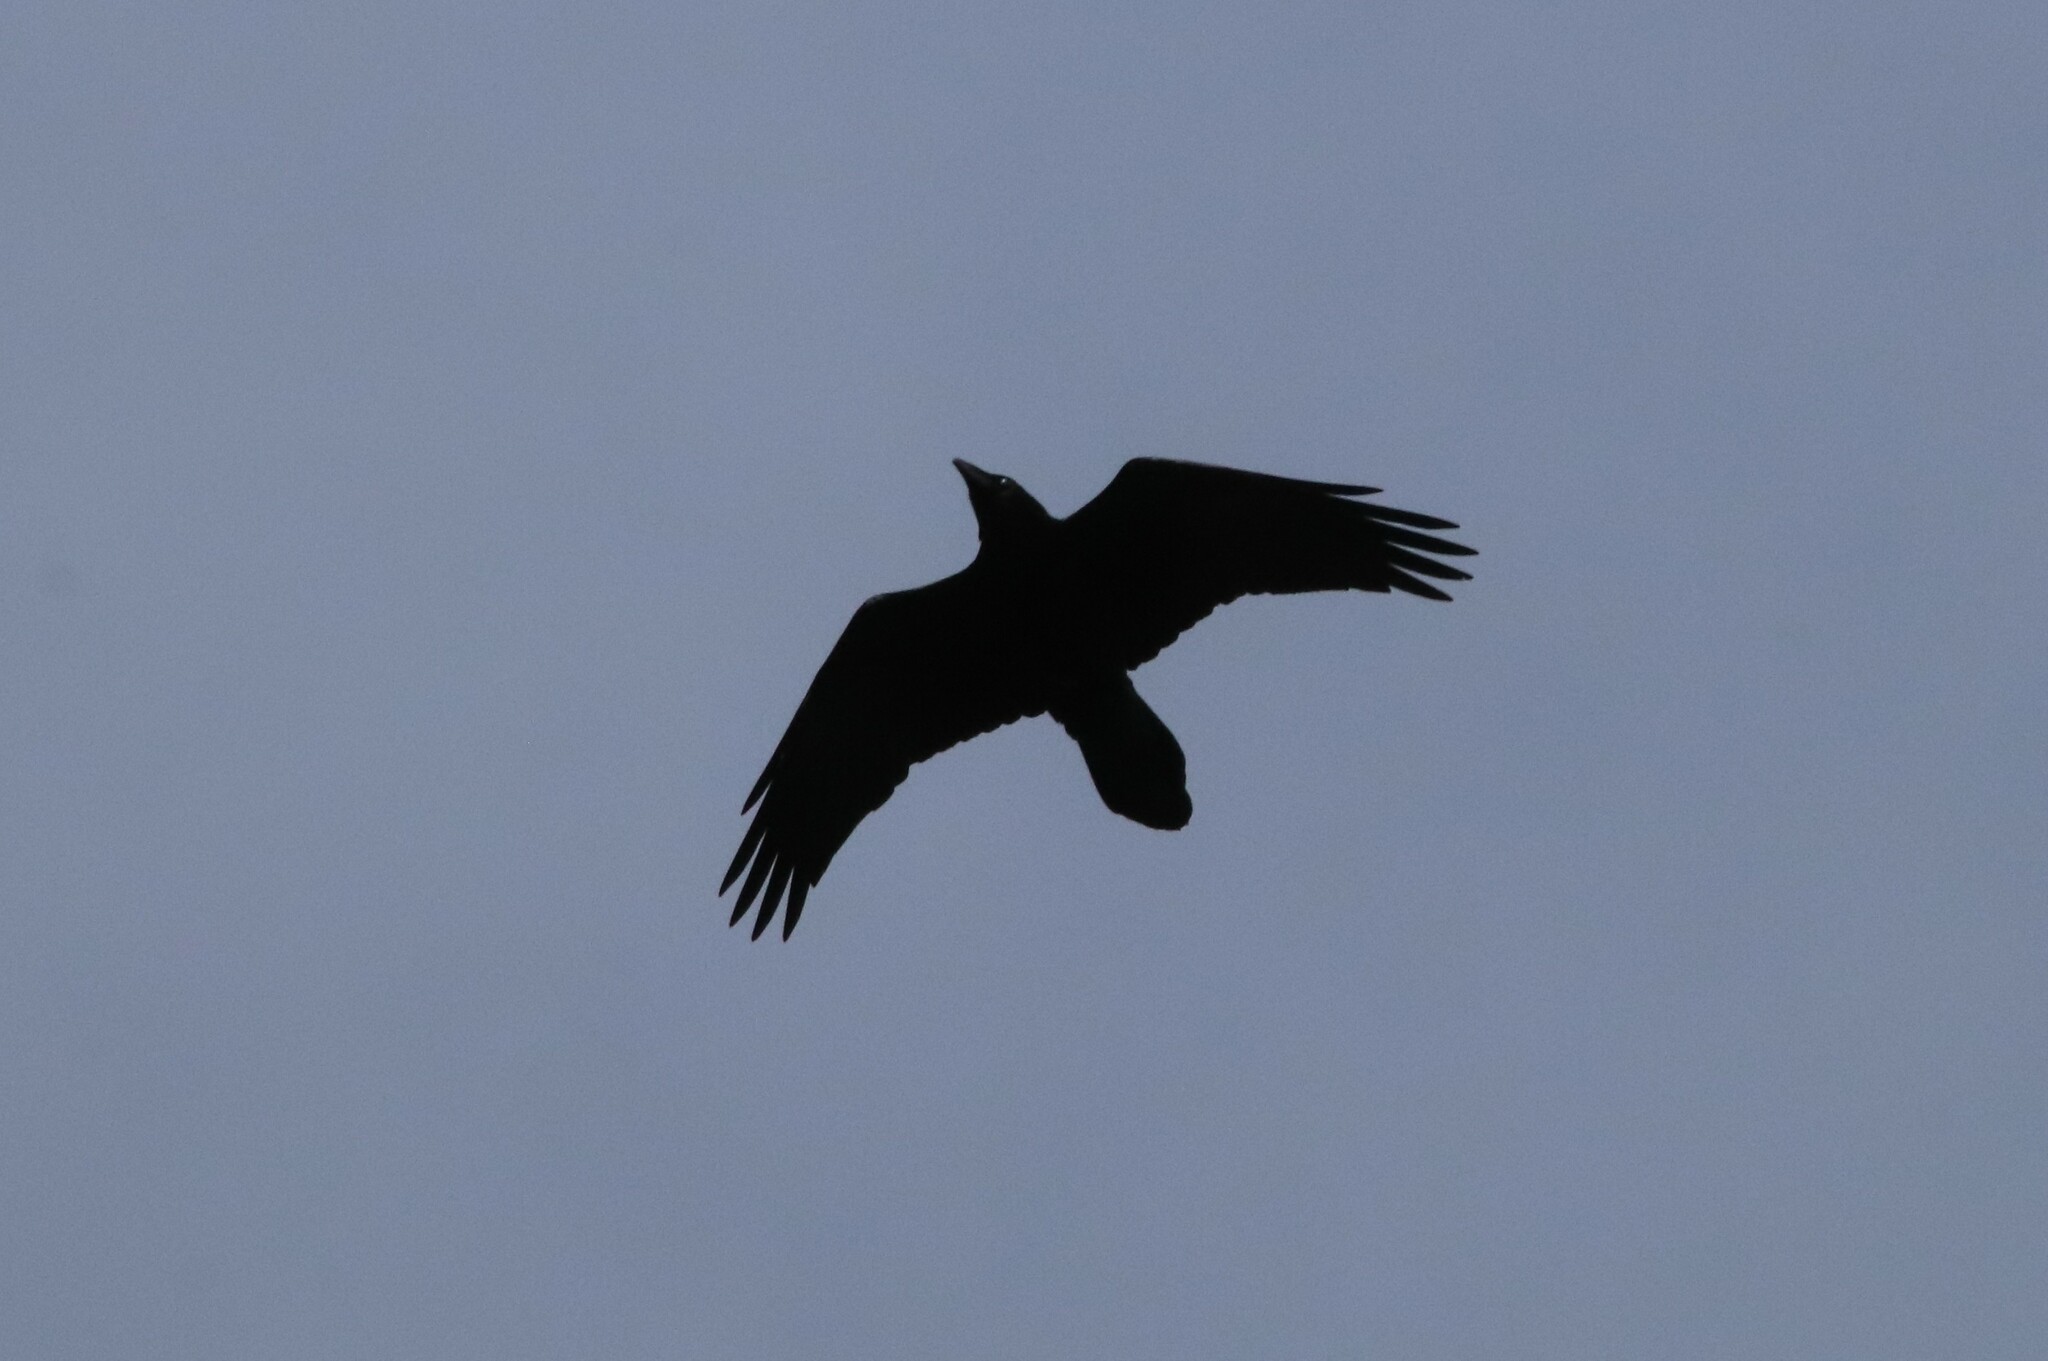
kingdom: Animalia
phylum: Chordata
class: Aves
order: Passeriformes
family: Corvidae
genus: Corvus
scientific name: Corvus corax
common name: Common raven
